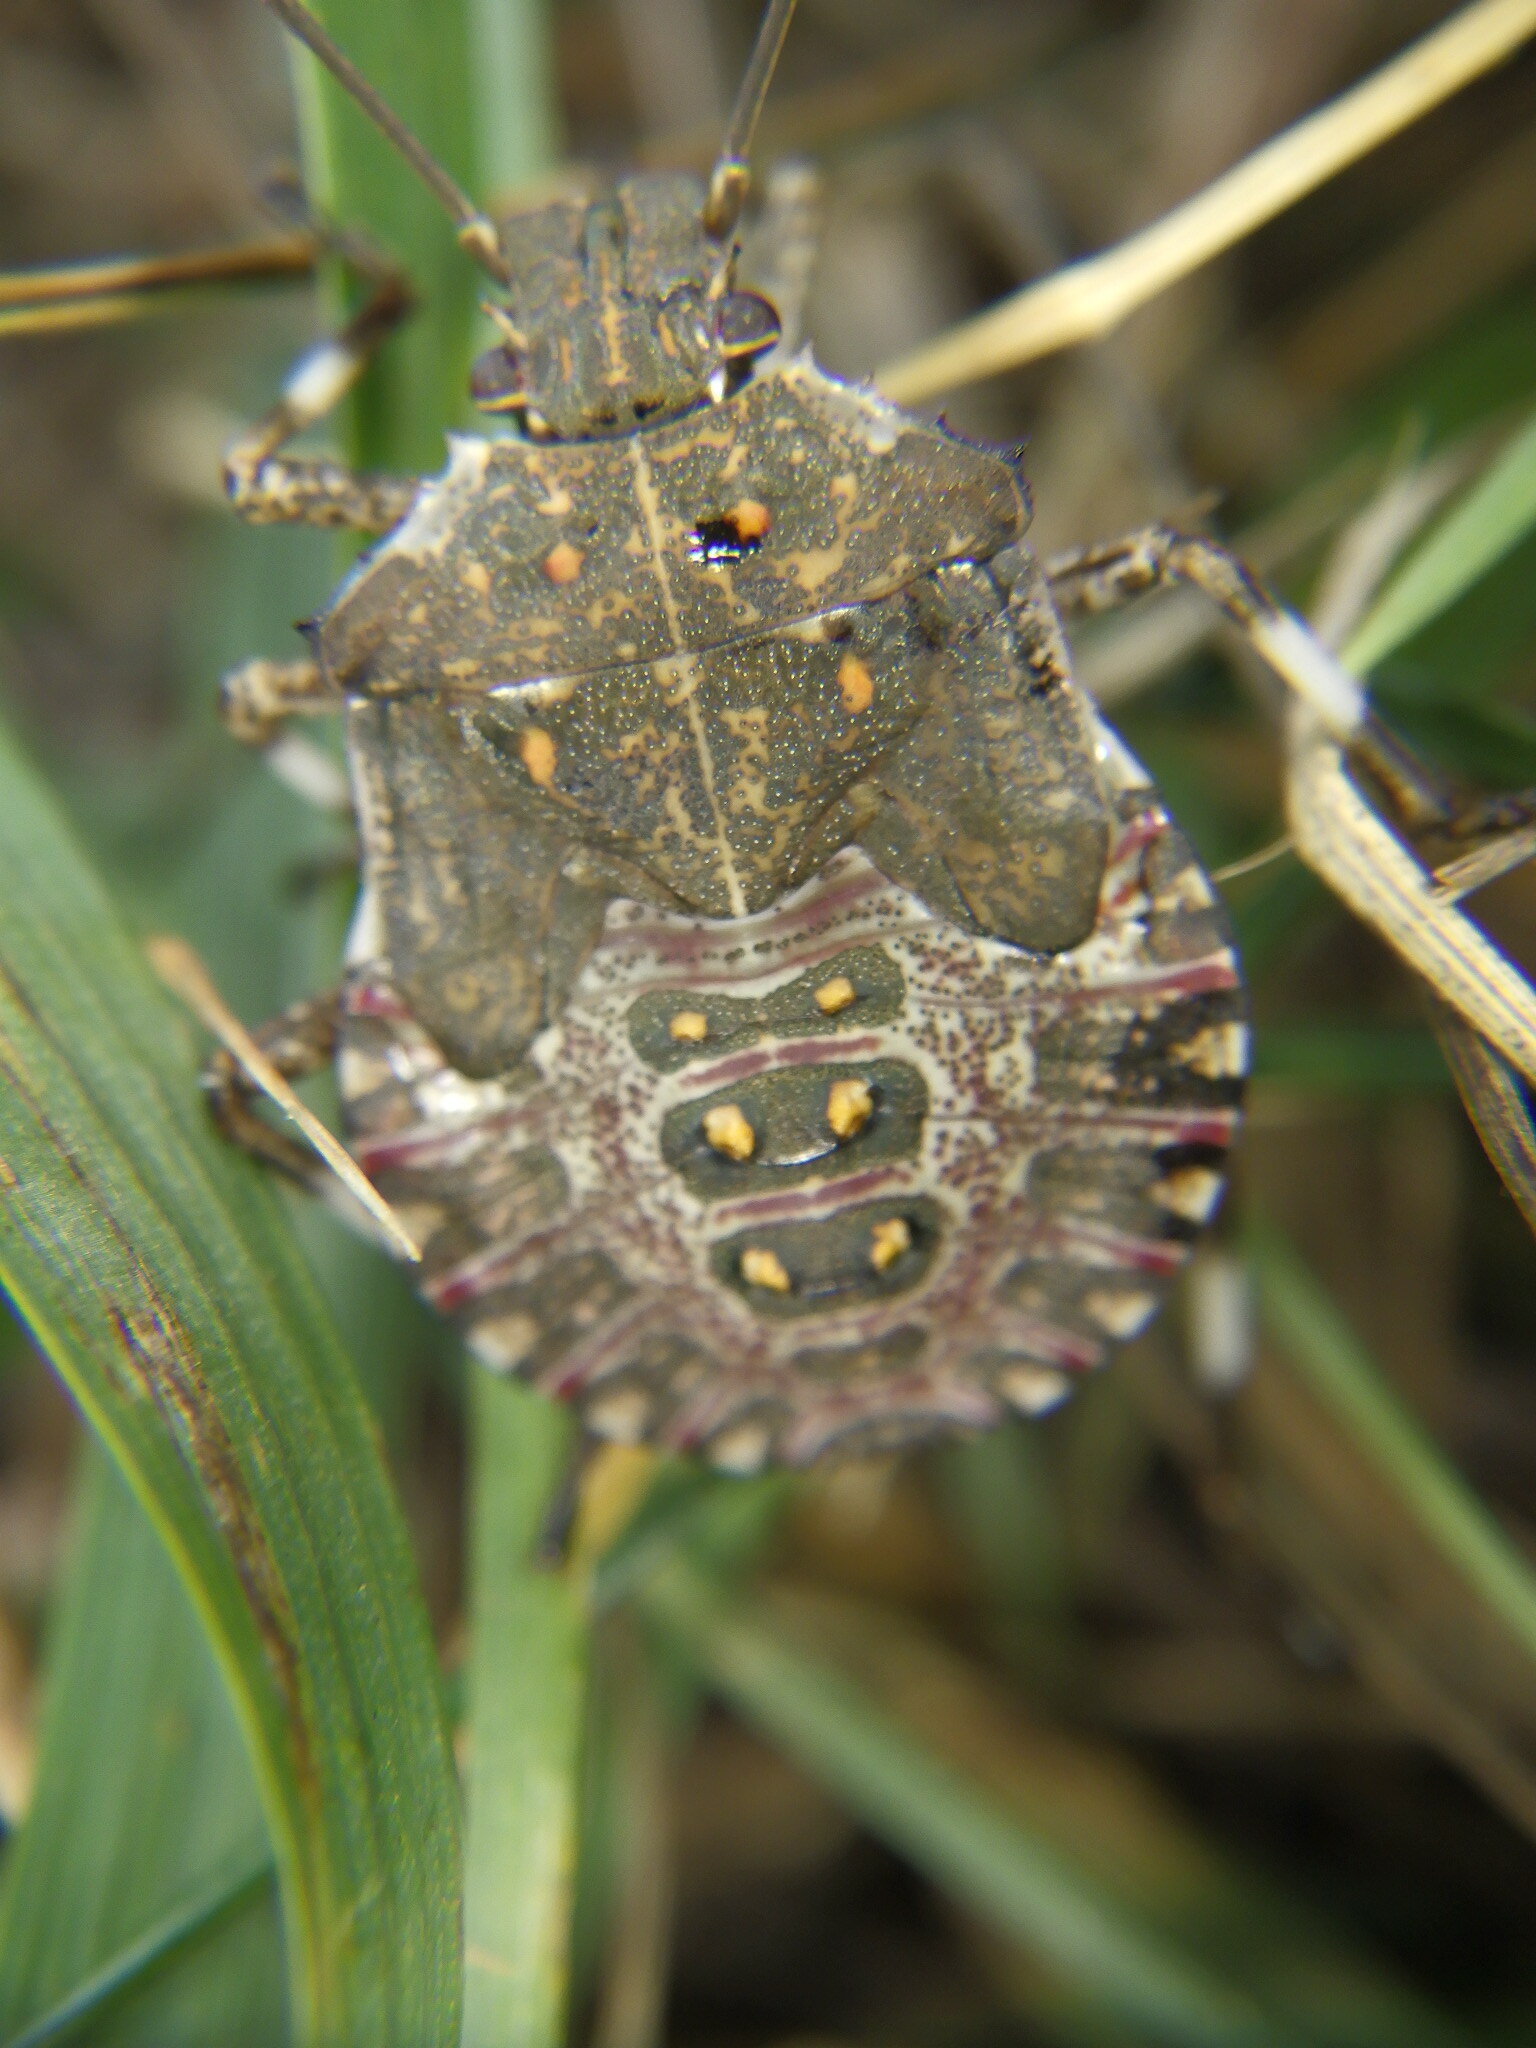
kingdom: Animalia
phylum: Arthropoda
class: Insecta
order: Hemiptera
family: Pentatomidae
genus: Halyomorpha
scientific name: Halyomorpha halys
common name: Brown marmorated stink bug
